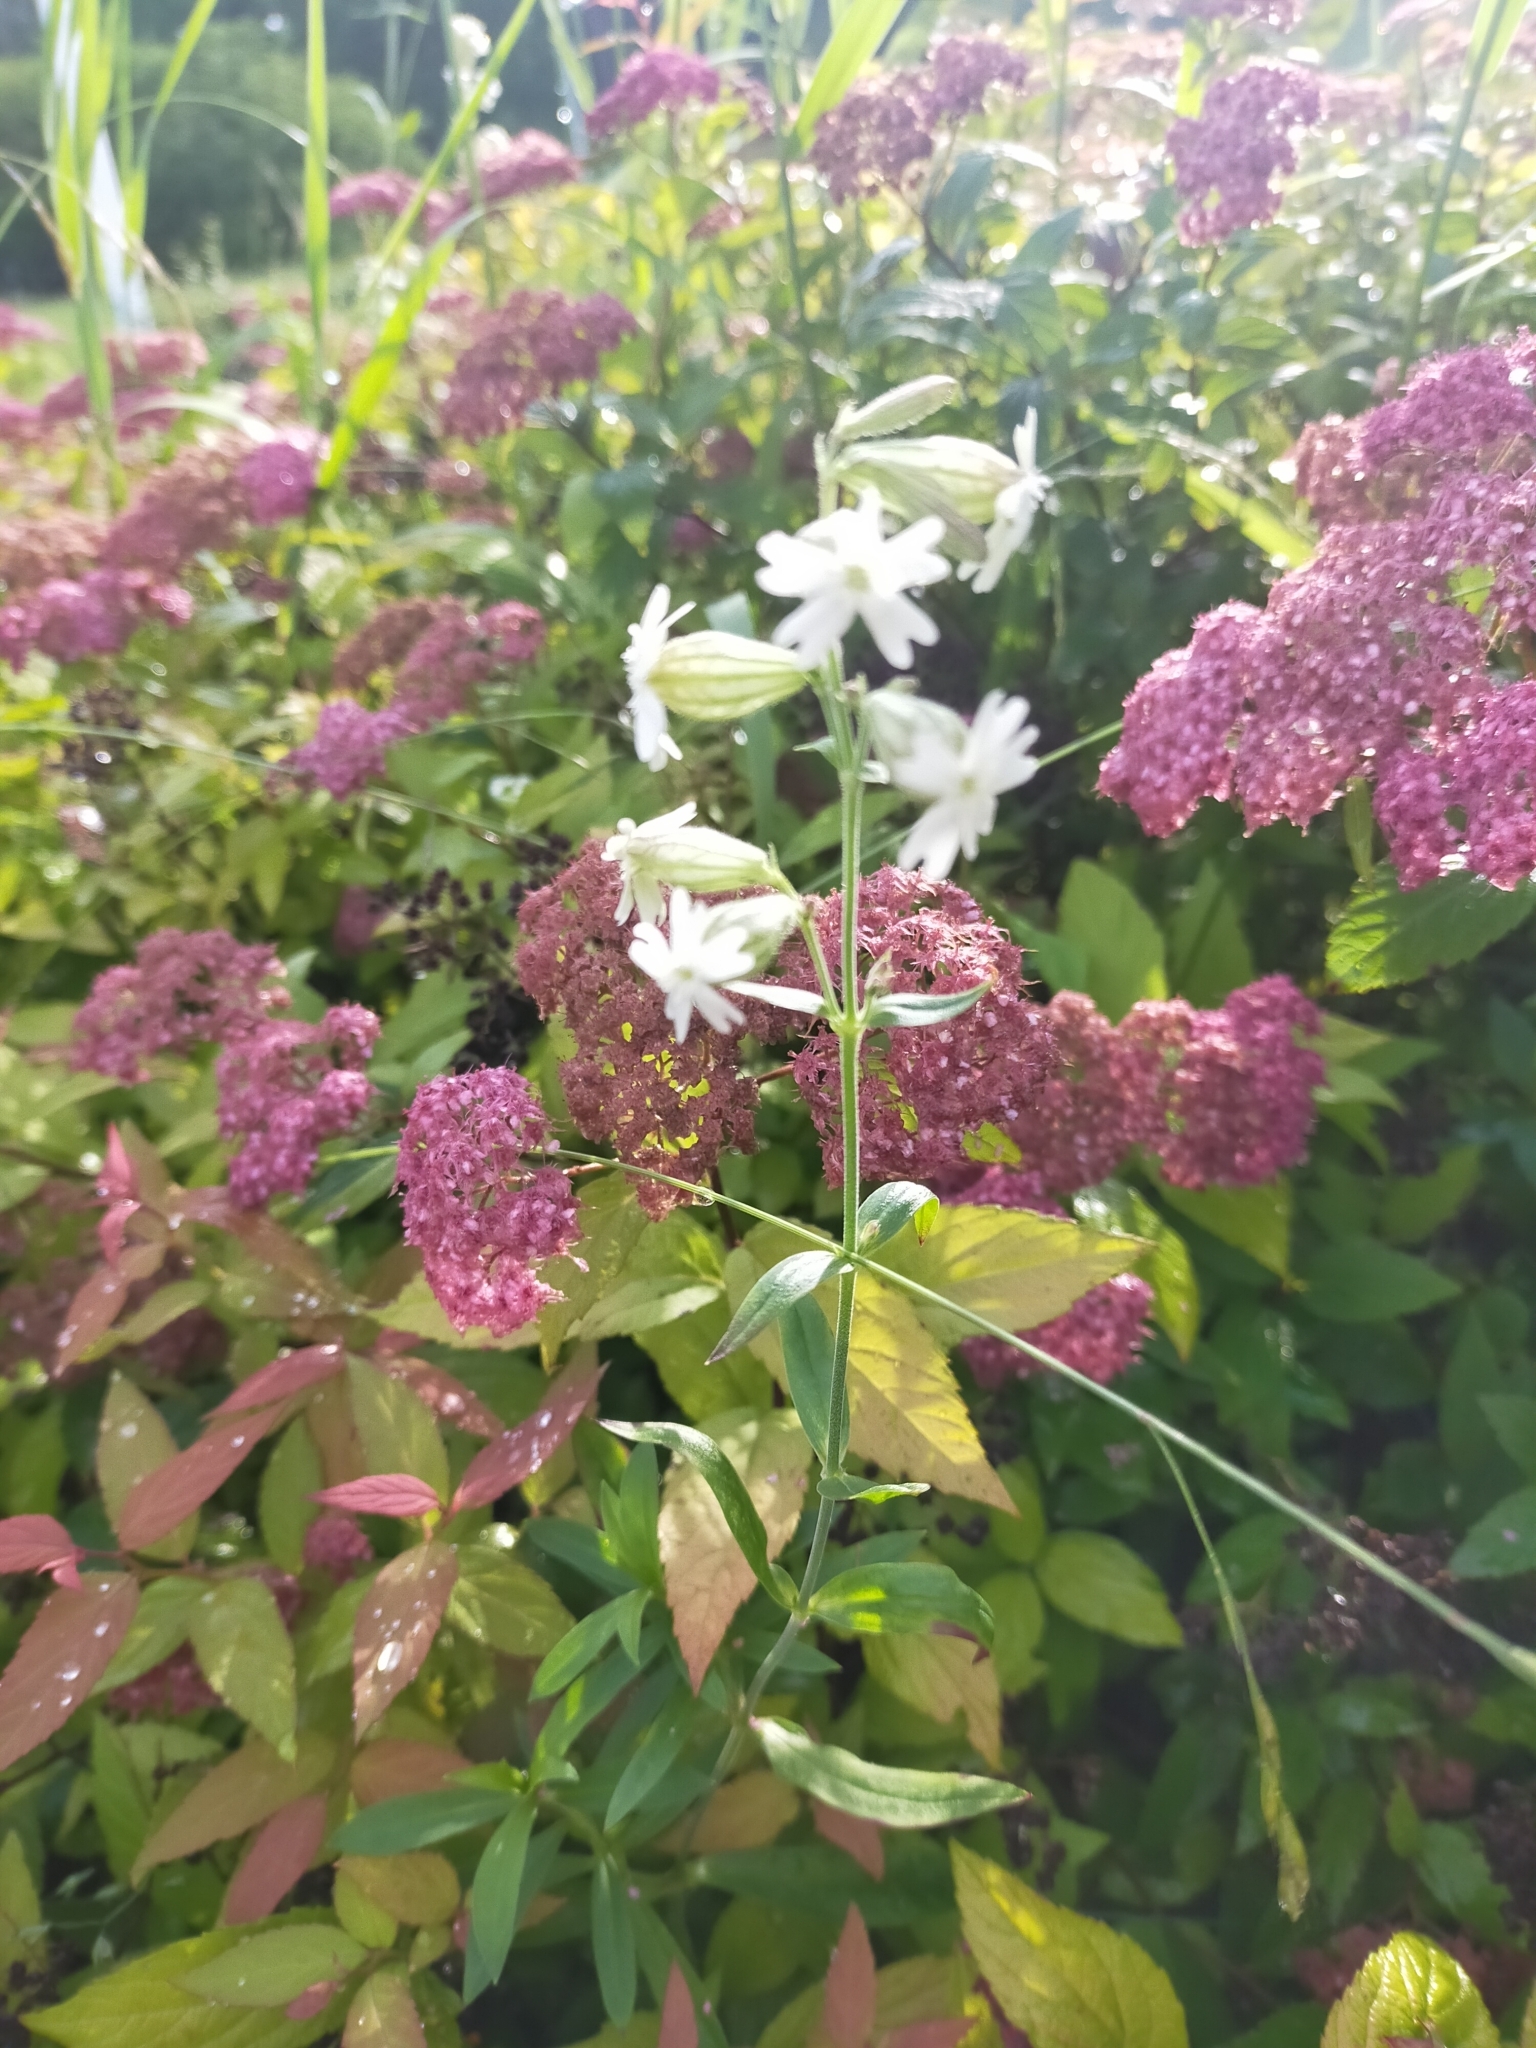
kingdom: Plantae
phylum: Tracheophyta
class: Magnoliopsida
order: Caryophyllales
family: Caryophyllaceae
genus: Silene
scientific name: Silene amoena
